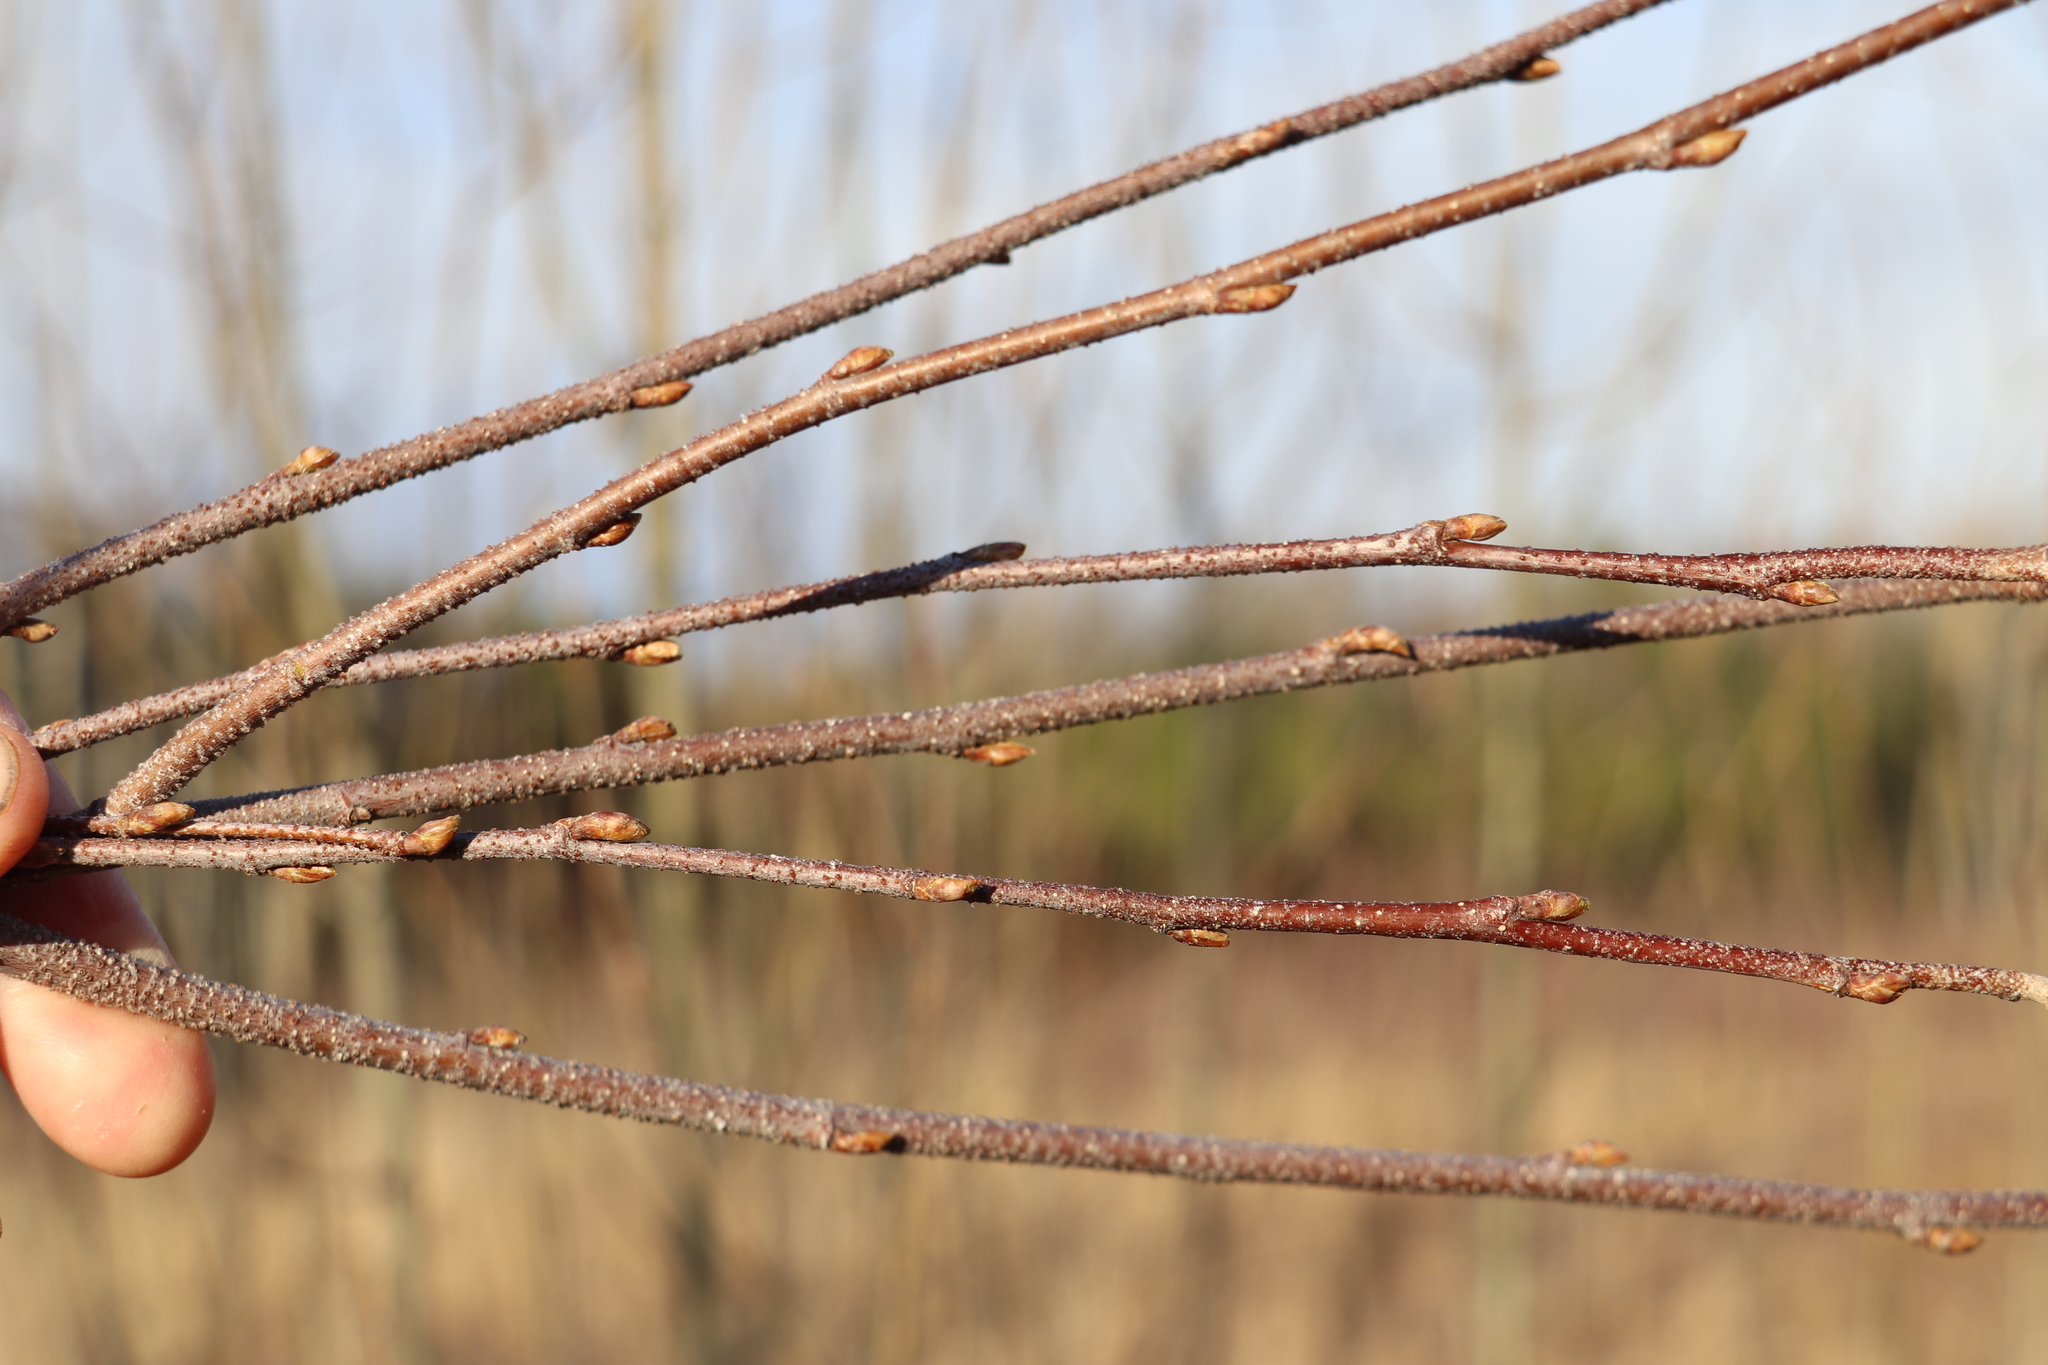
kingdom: Plantae
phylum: Tracheophyta
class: Magnoliopsida
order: Fagales
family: Betulaceae
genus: Betula
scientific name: Betula pendula
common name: Silver birch
